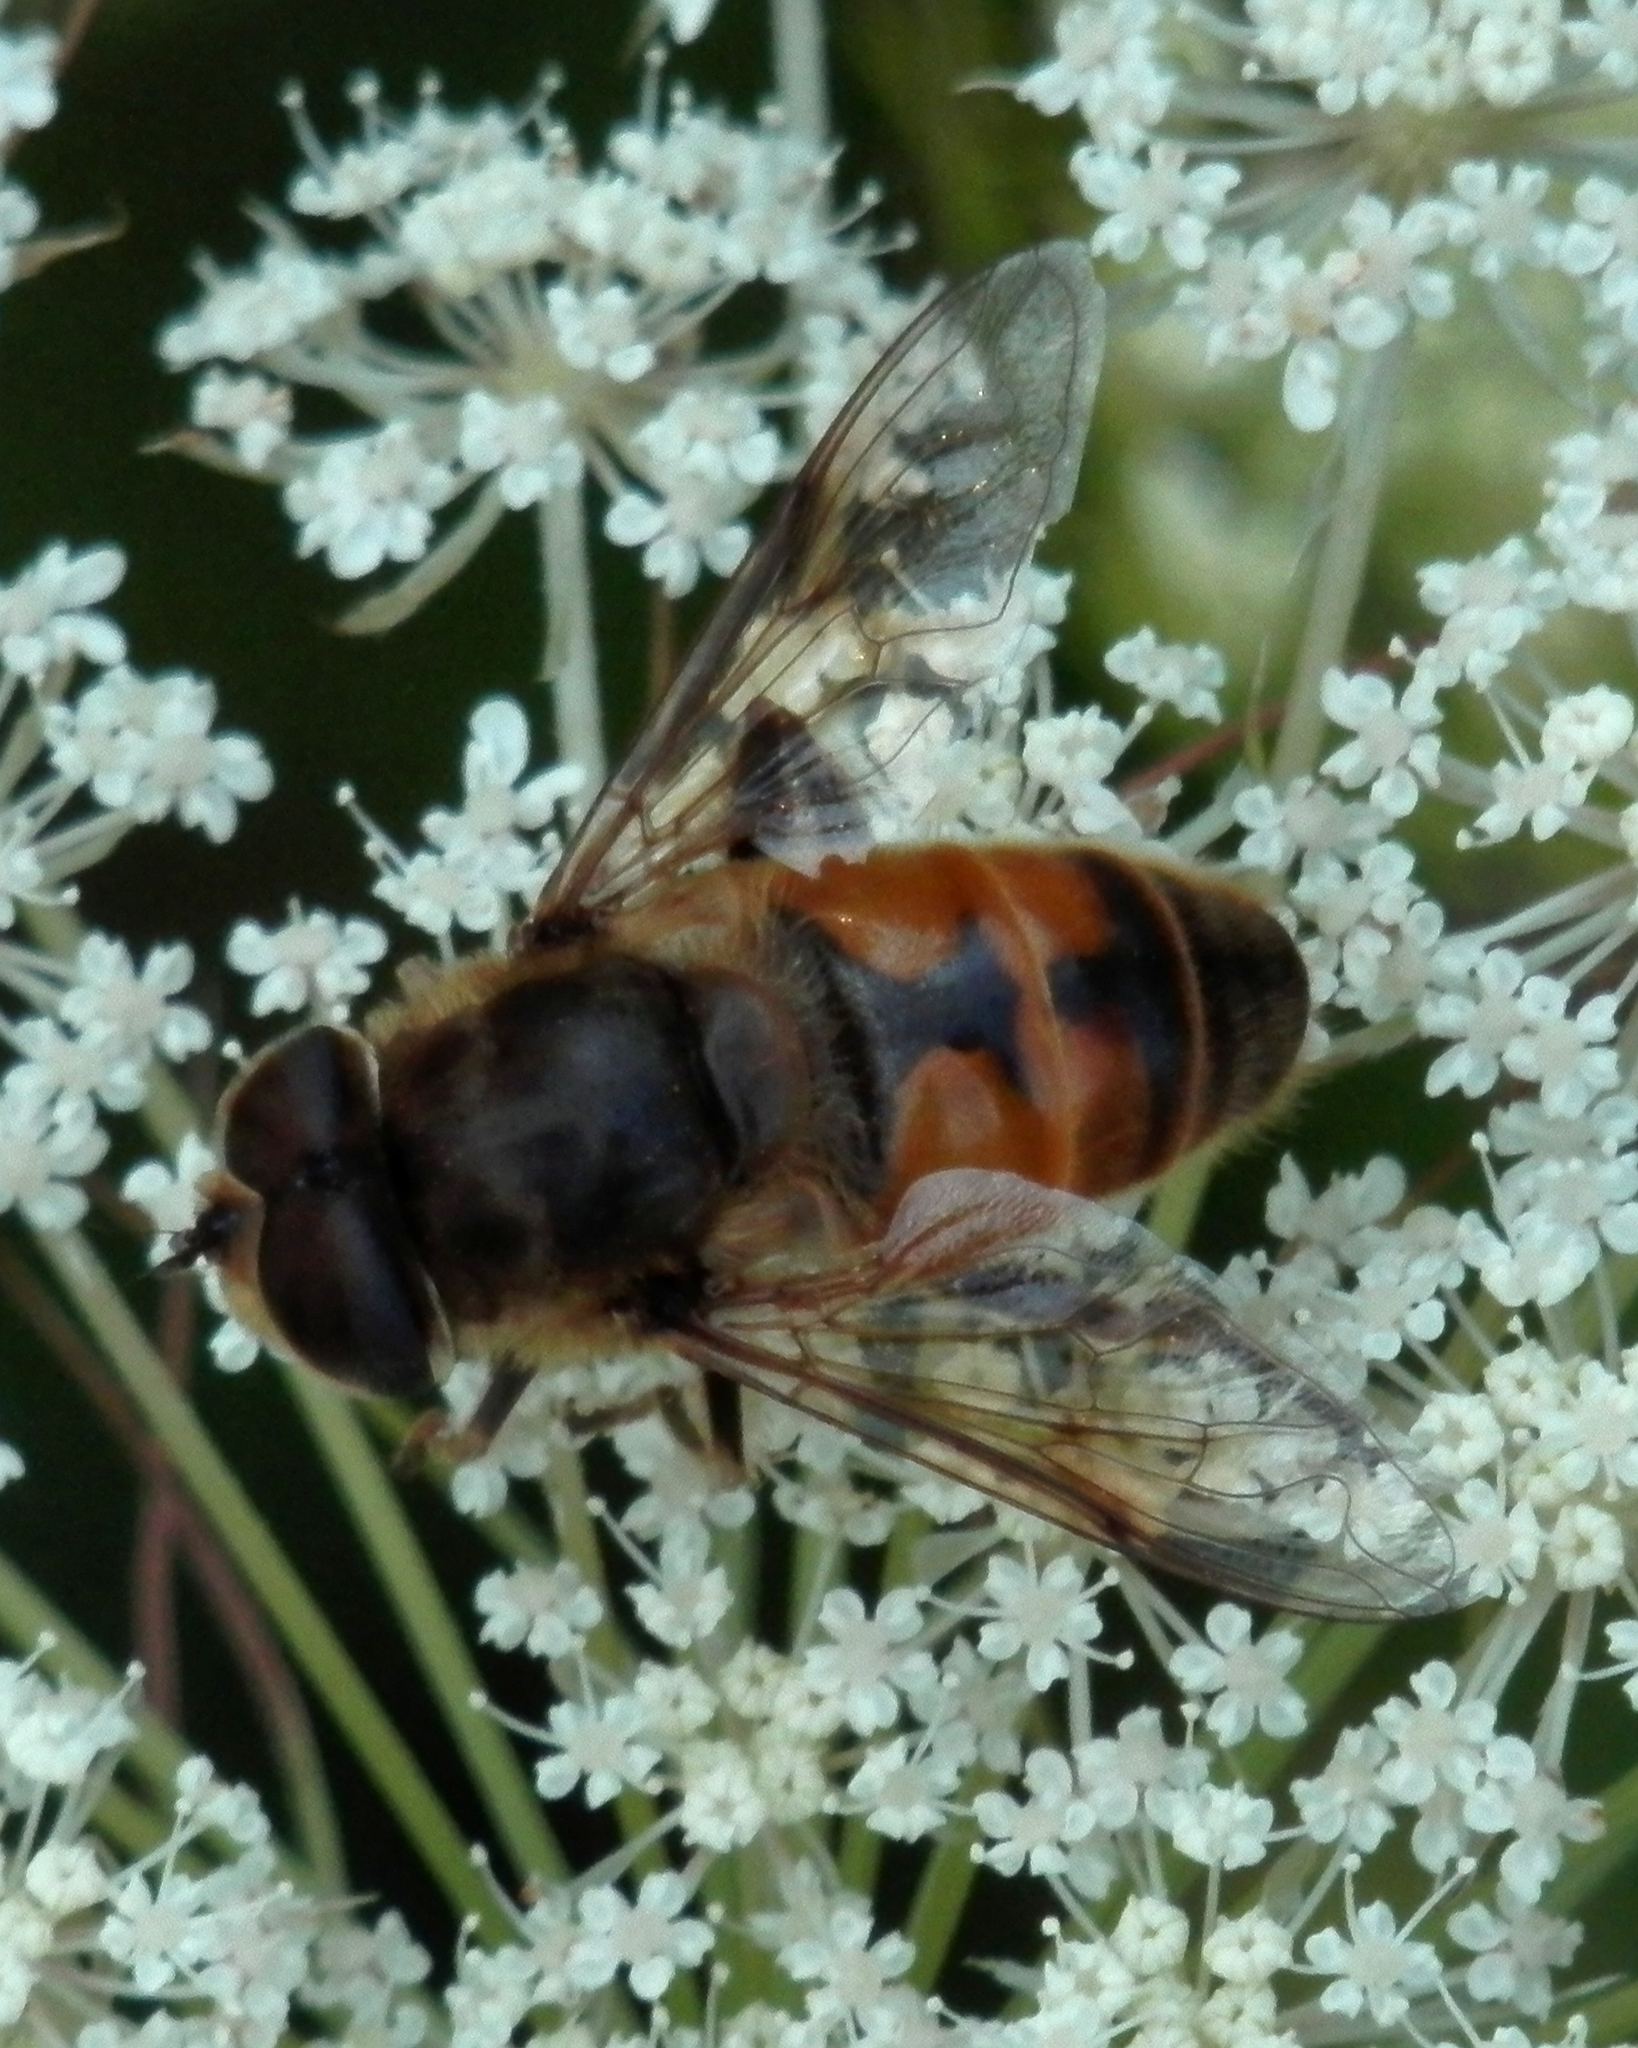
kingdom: Animalia
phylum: Arthropoda
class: Insecta
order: Diptera
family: Syrphidae
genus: Eristalis
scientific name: Eristalis tenax
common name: Drone fly
